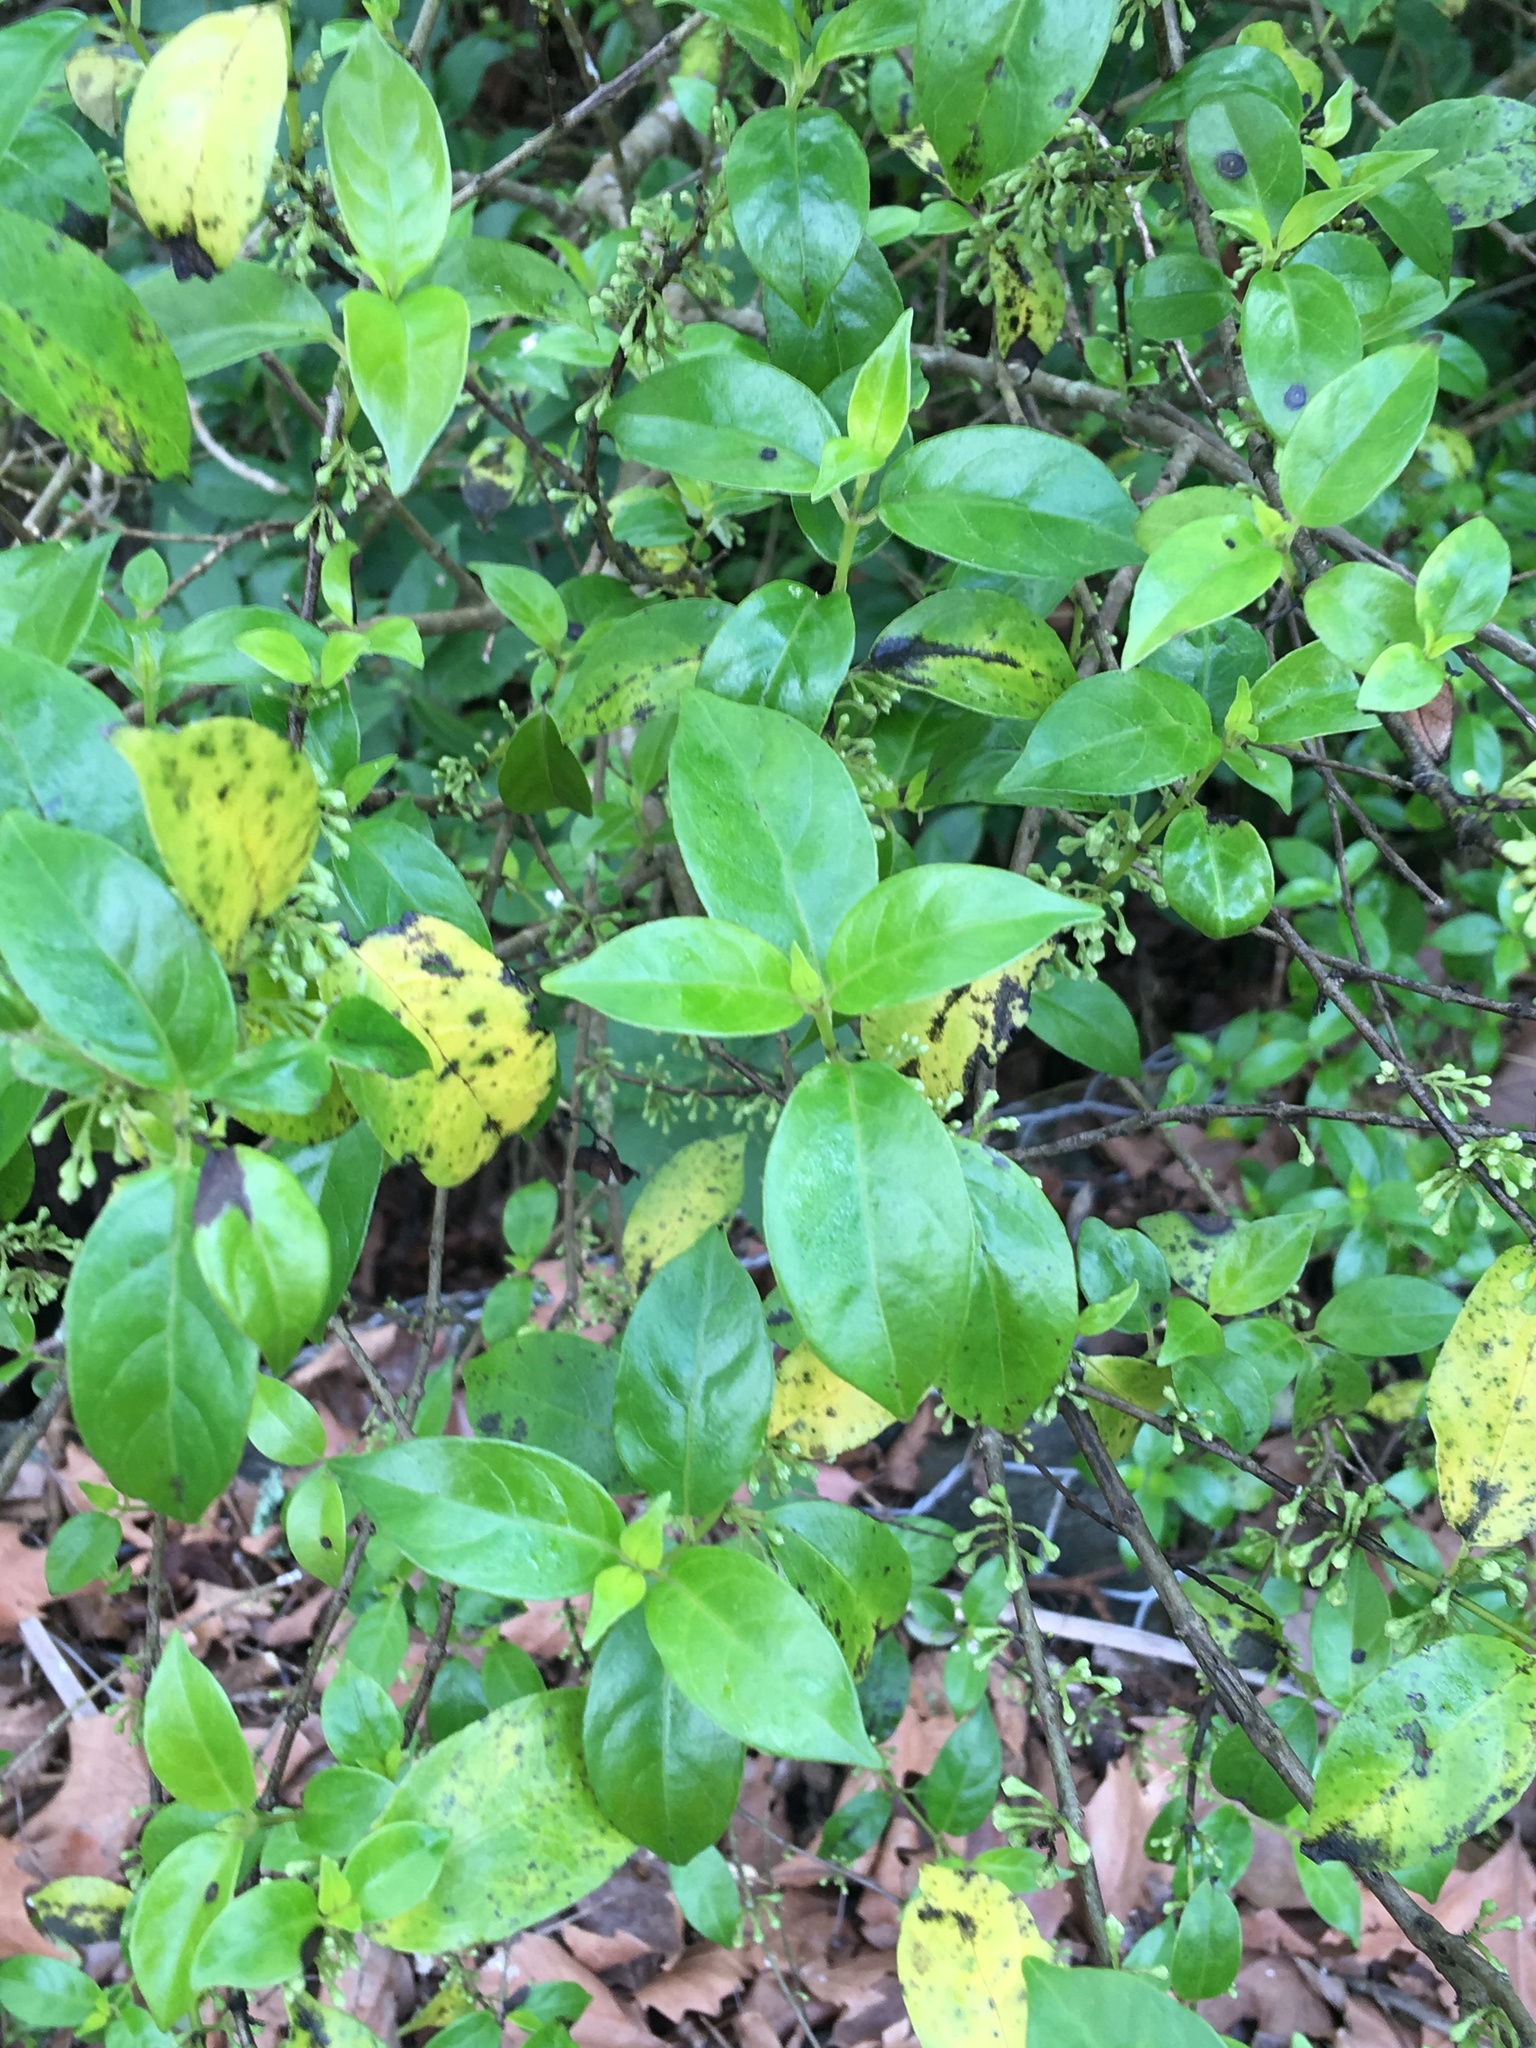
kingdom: Plantae
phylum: Tracheophyta
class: Magnoliopsida
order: Gentianales
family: Loganiaceae
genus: Geniostoma
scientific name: Geniostoma ligustrifolium
